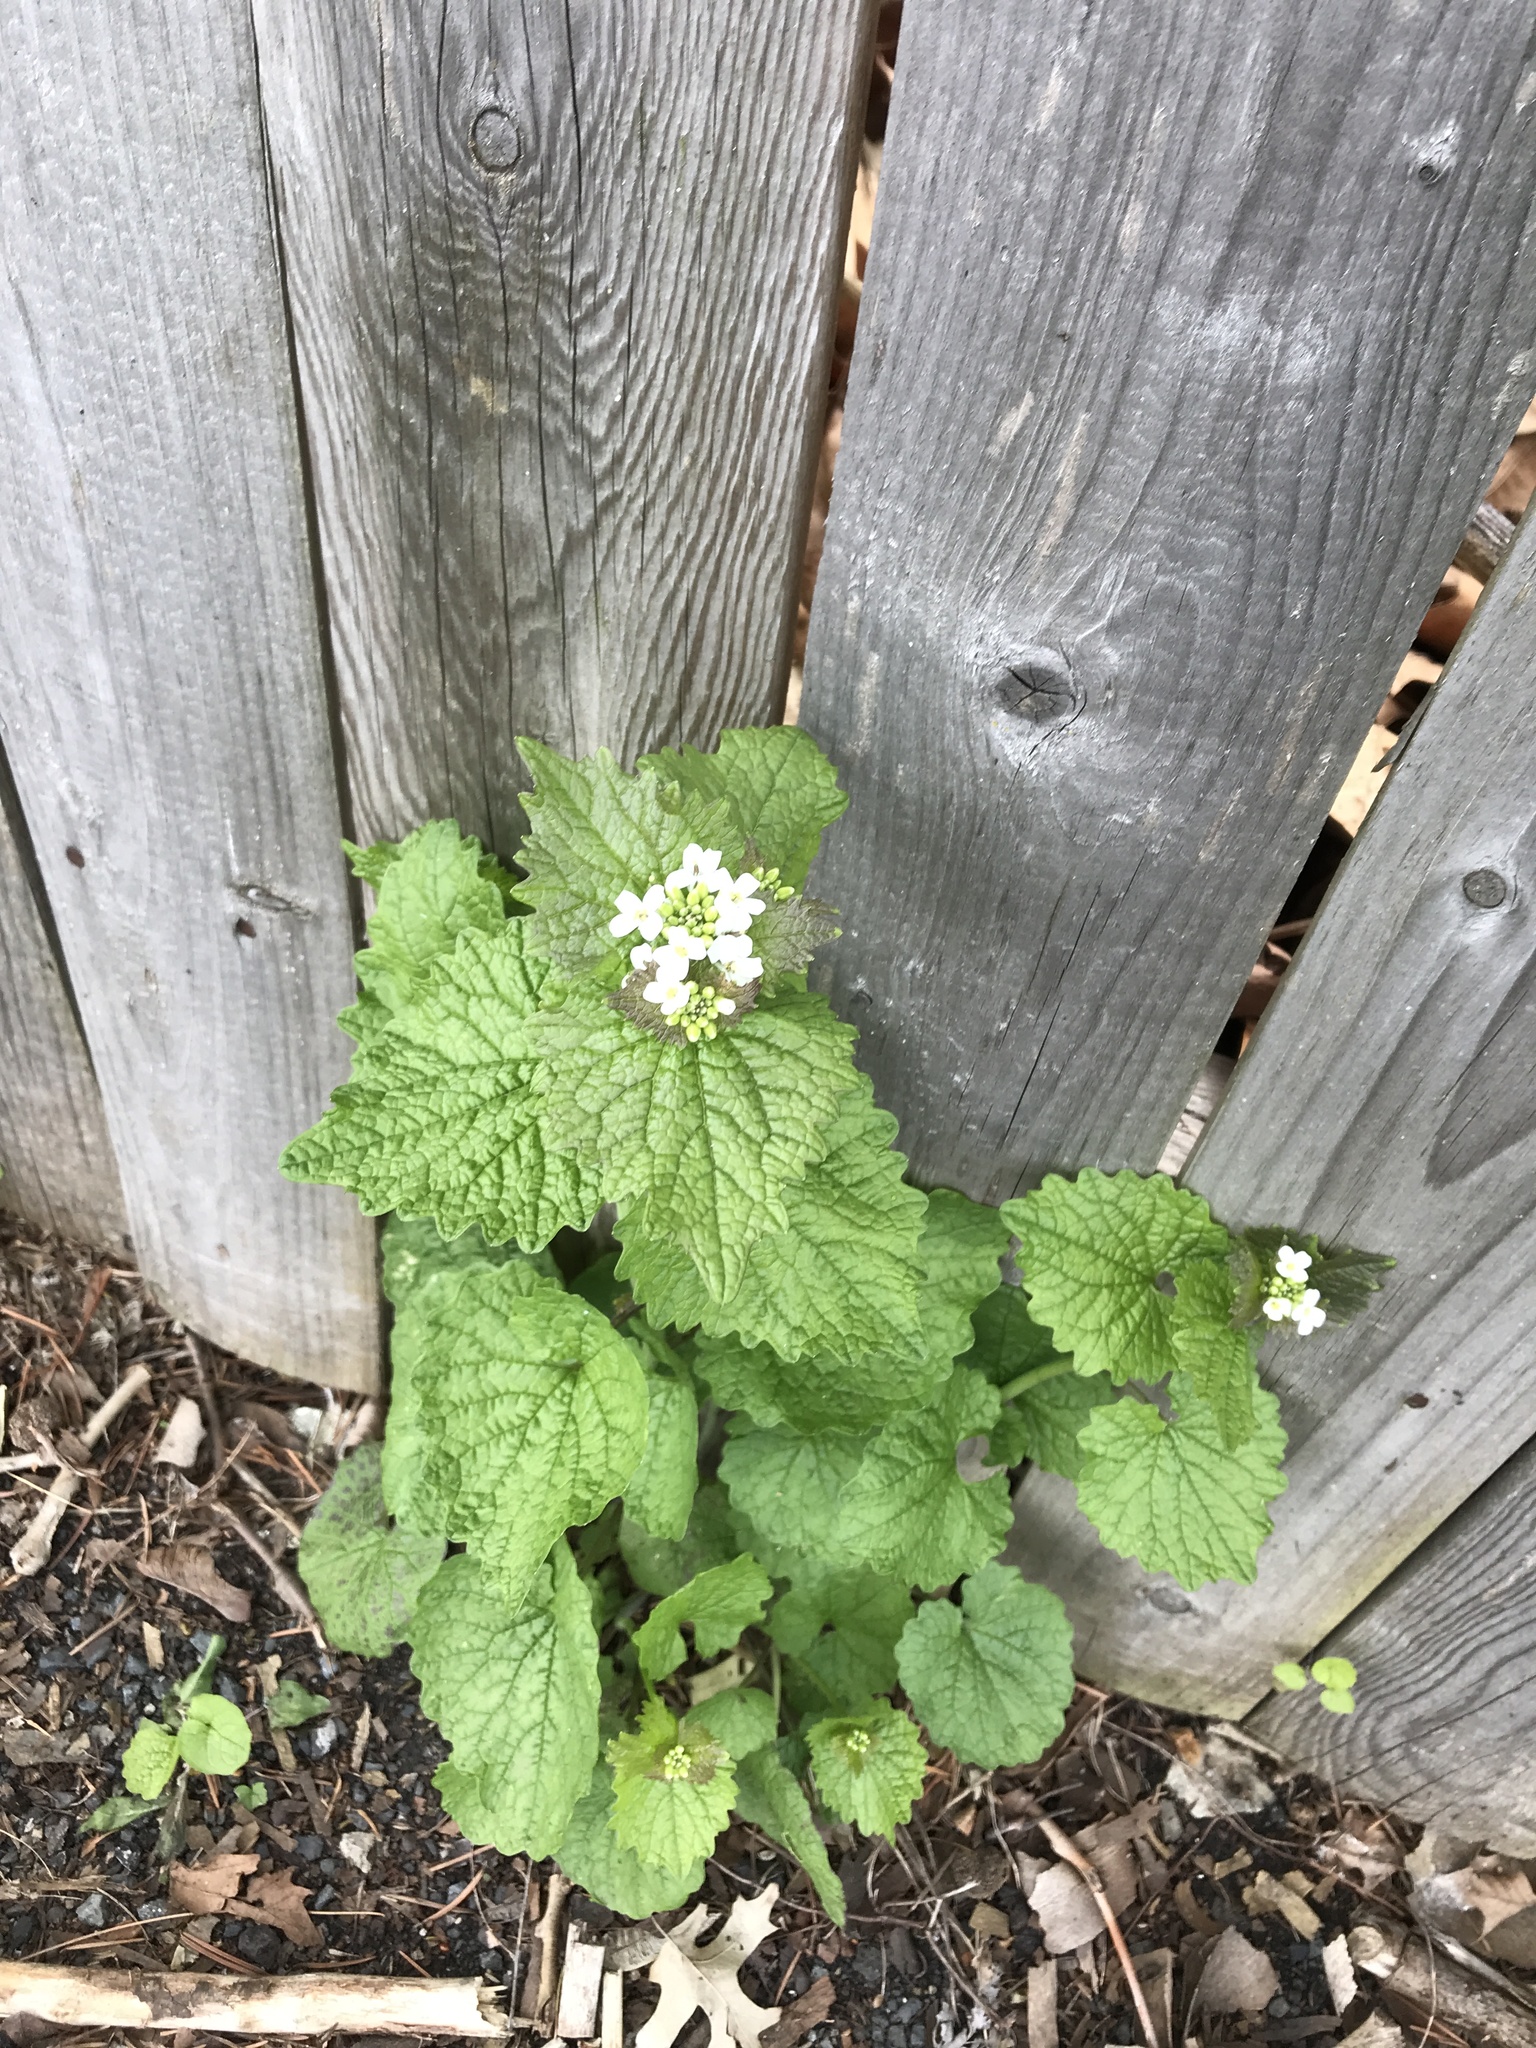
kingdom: Plantae
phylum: Tracheophyta
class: Magnoliopsida
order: Brassicales
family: Brassicaceae
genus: Alliaria
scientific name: Alliaria petiolata
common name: Garlic mustard
